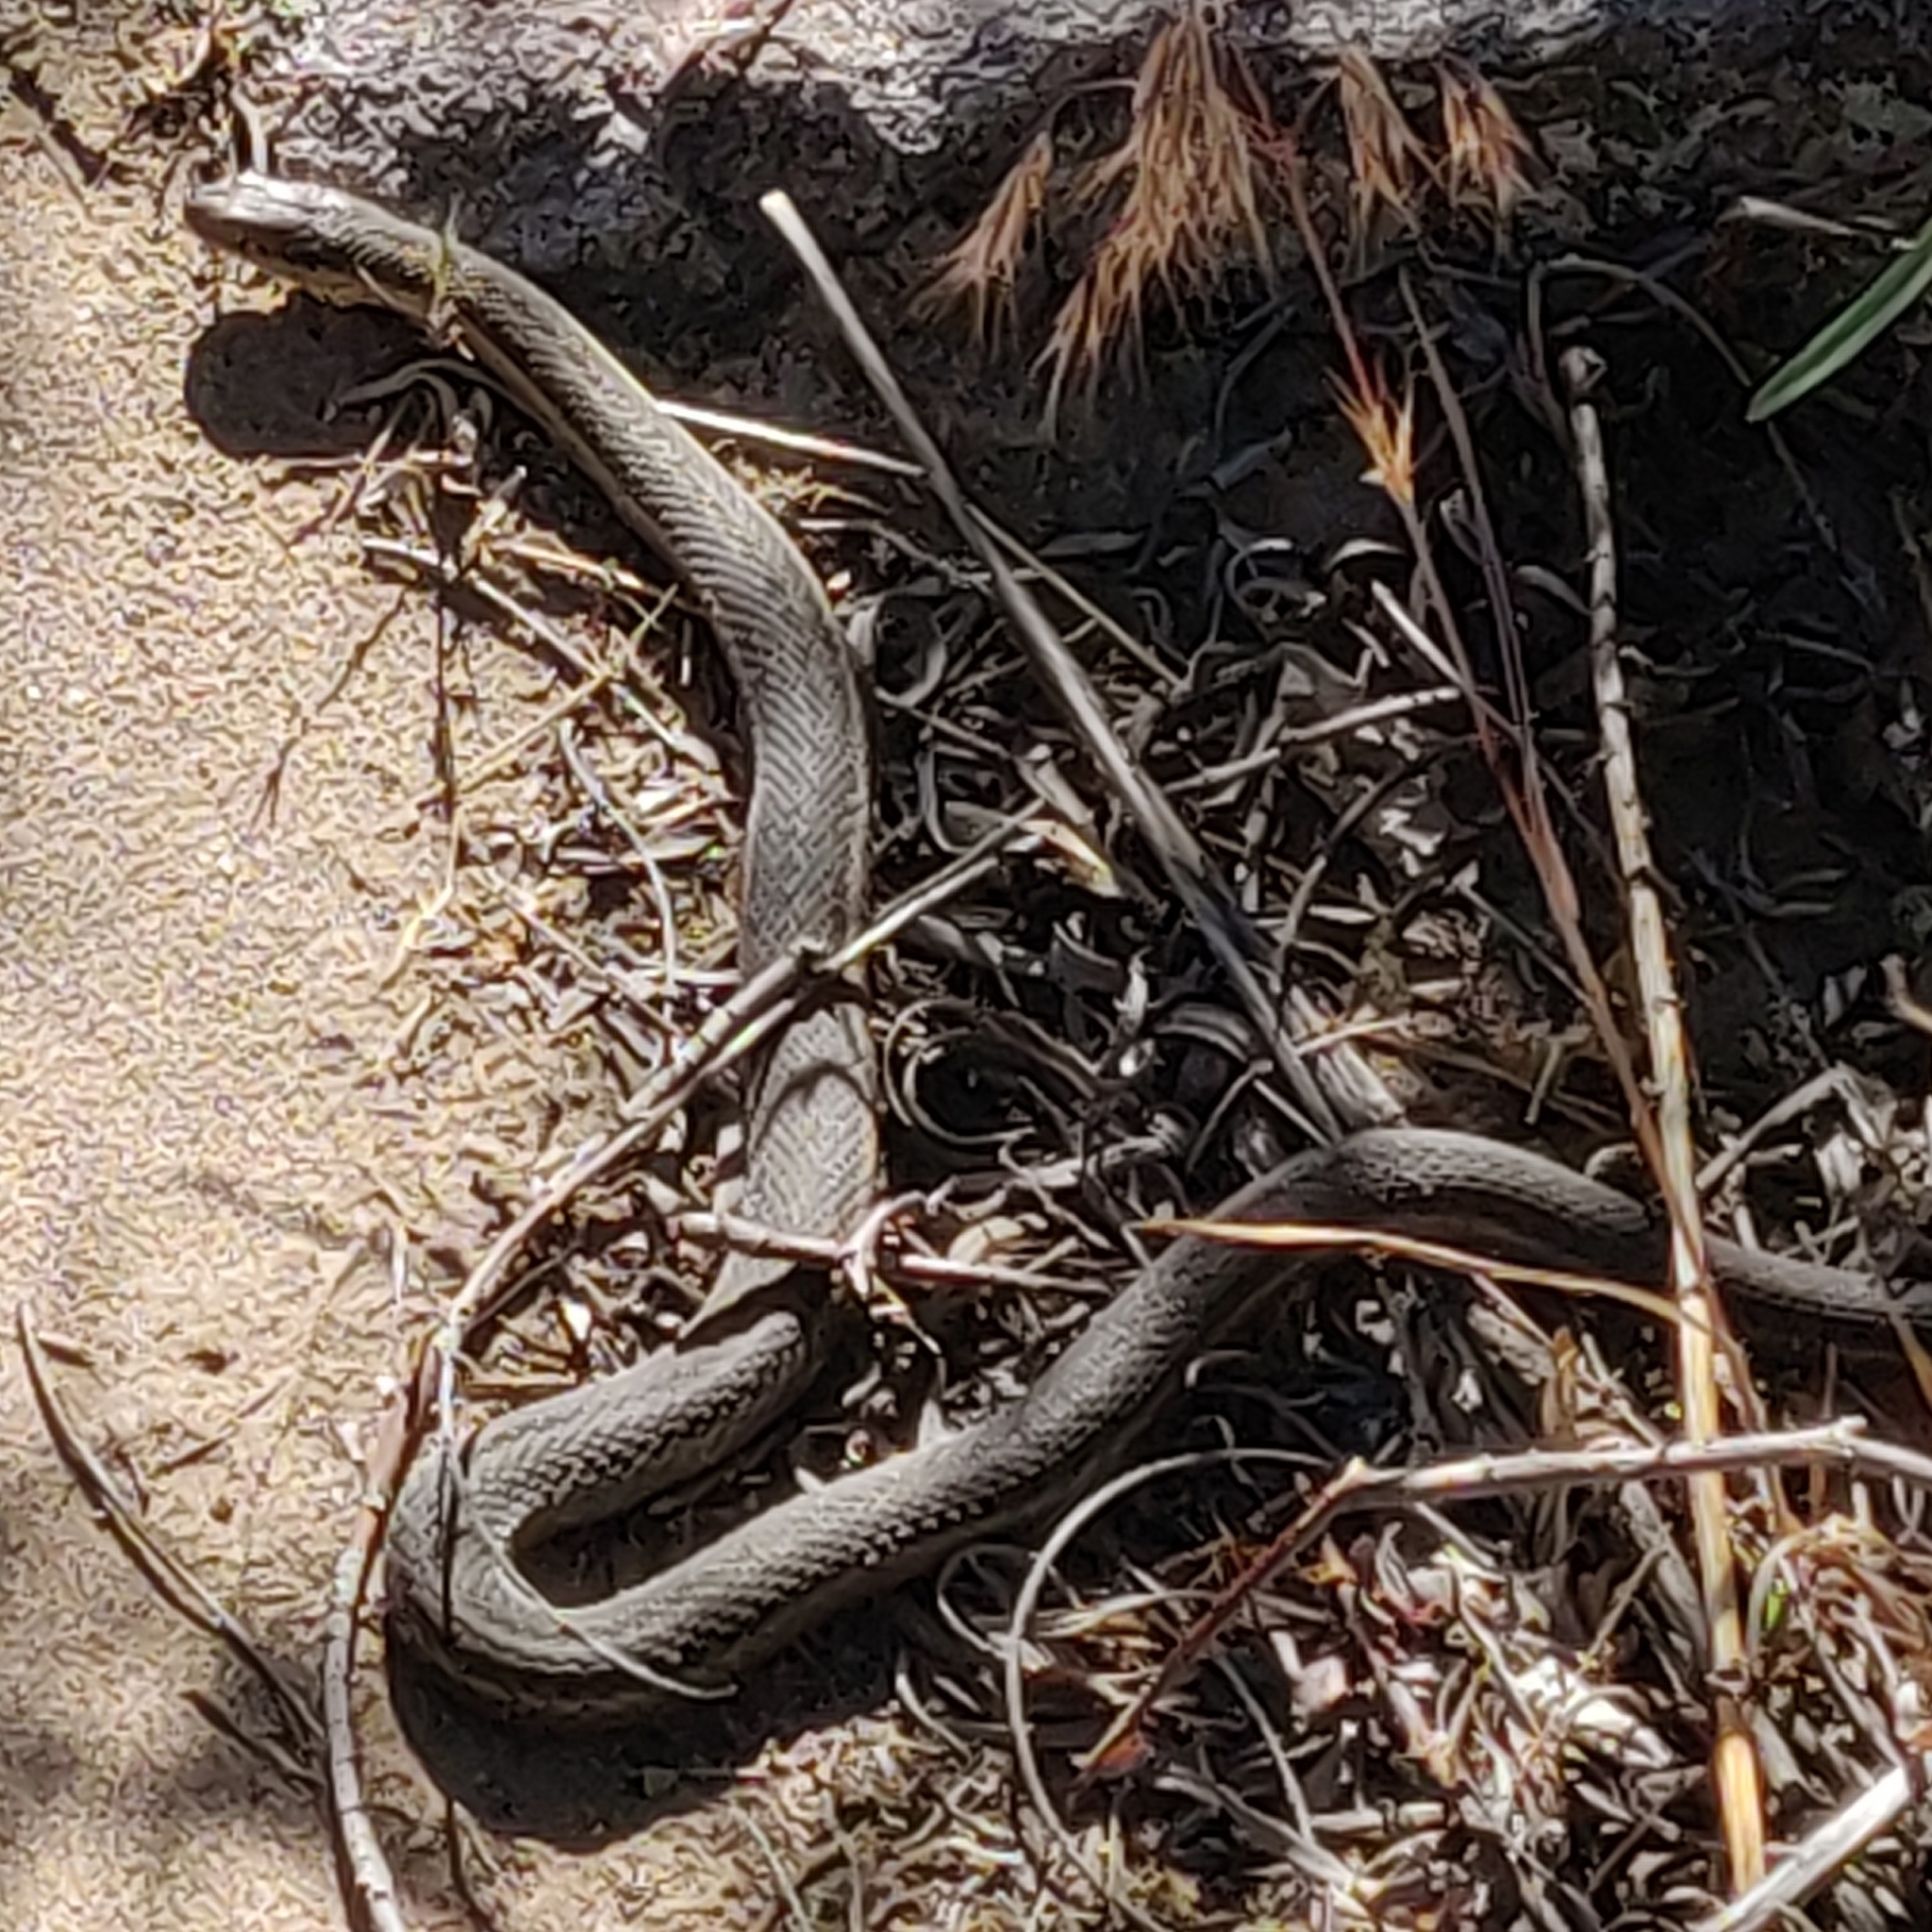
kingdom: Animalia
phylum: Chordata
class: Squamata
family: Colubridae
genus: Thamnophis
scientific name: Thamnophis elegans
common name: Western terrestrial garter snake
